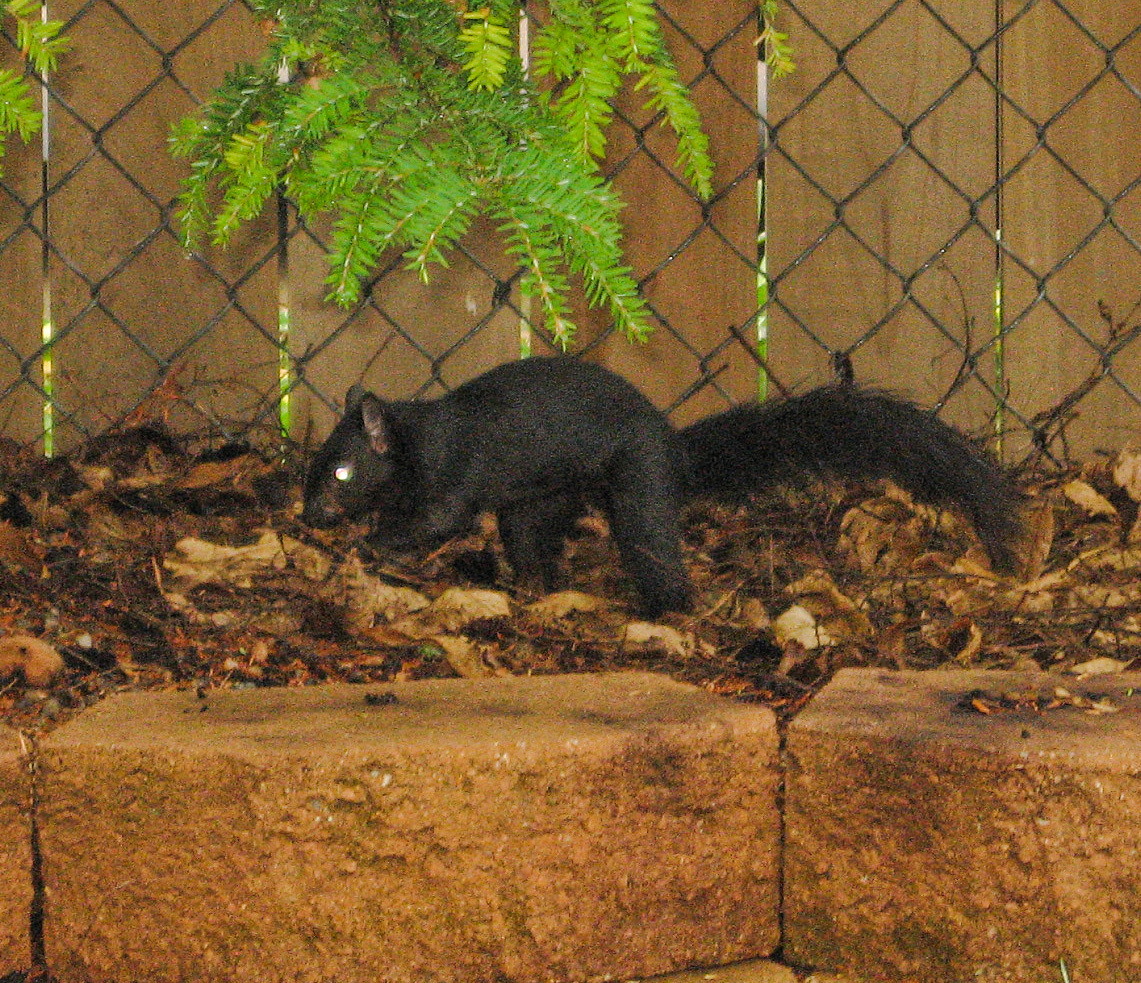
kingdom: Animalia
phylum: Chordata
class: Mammalia
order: Rodentia
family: Sciuridae
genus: Sciurus
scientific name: Sciurus carolinensis
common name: Eastern gray squirrel
